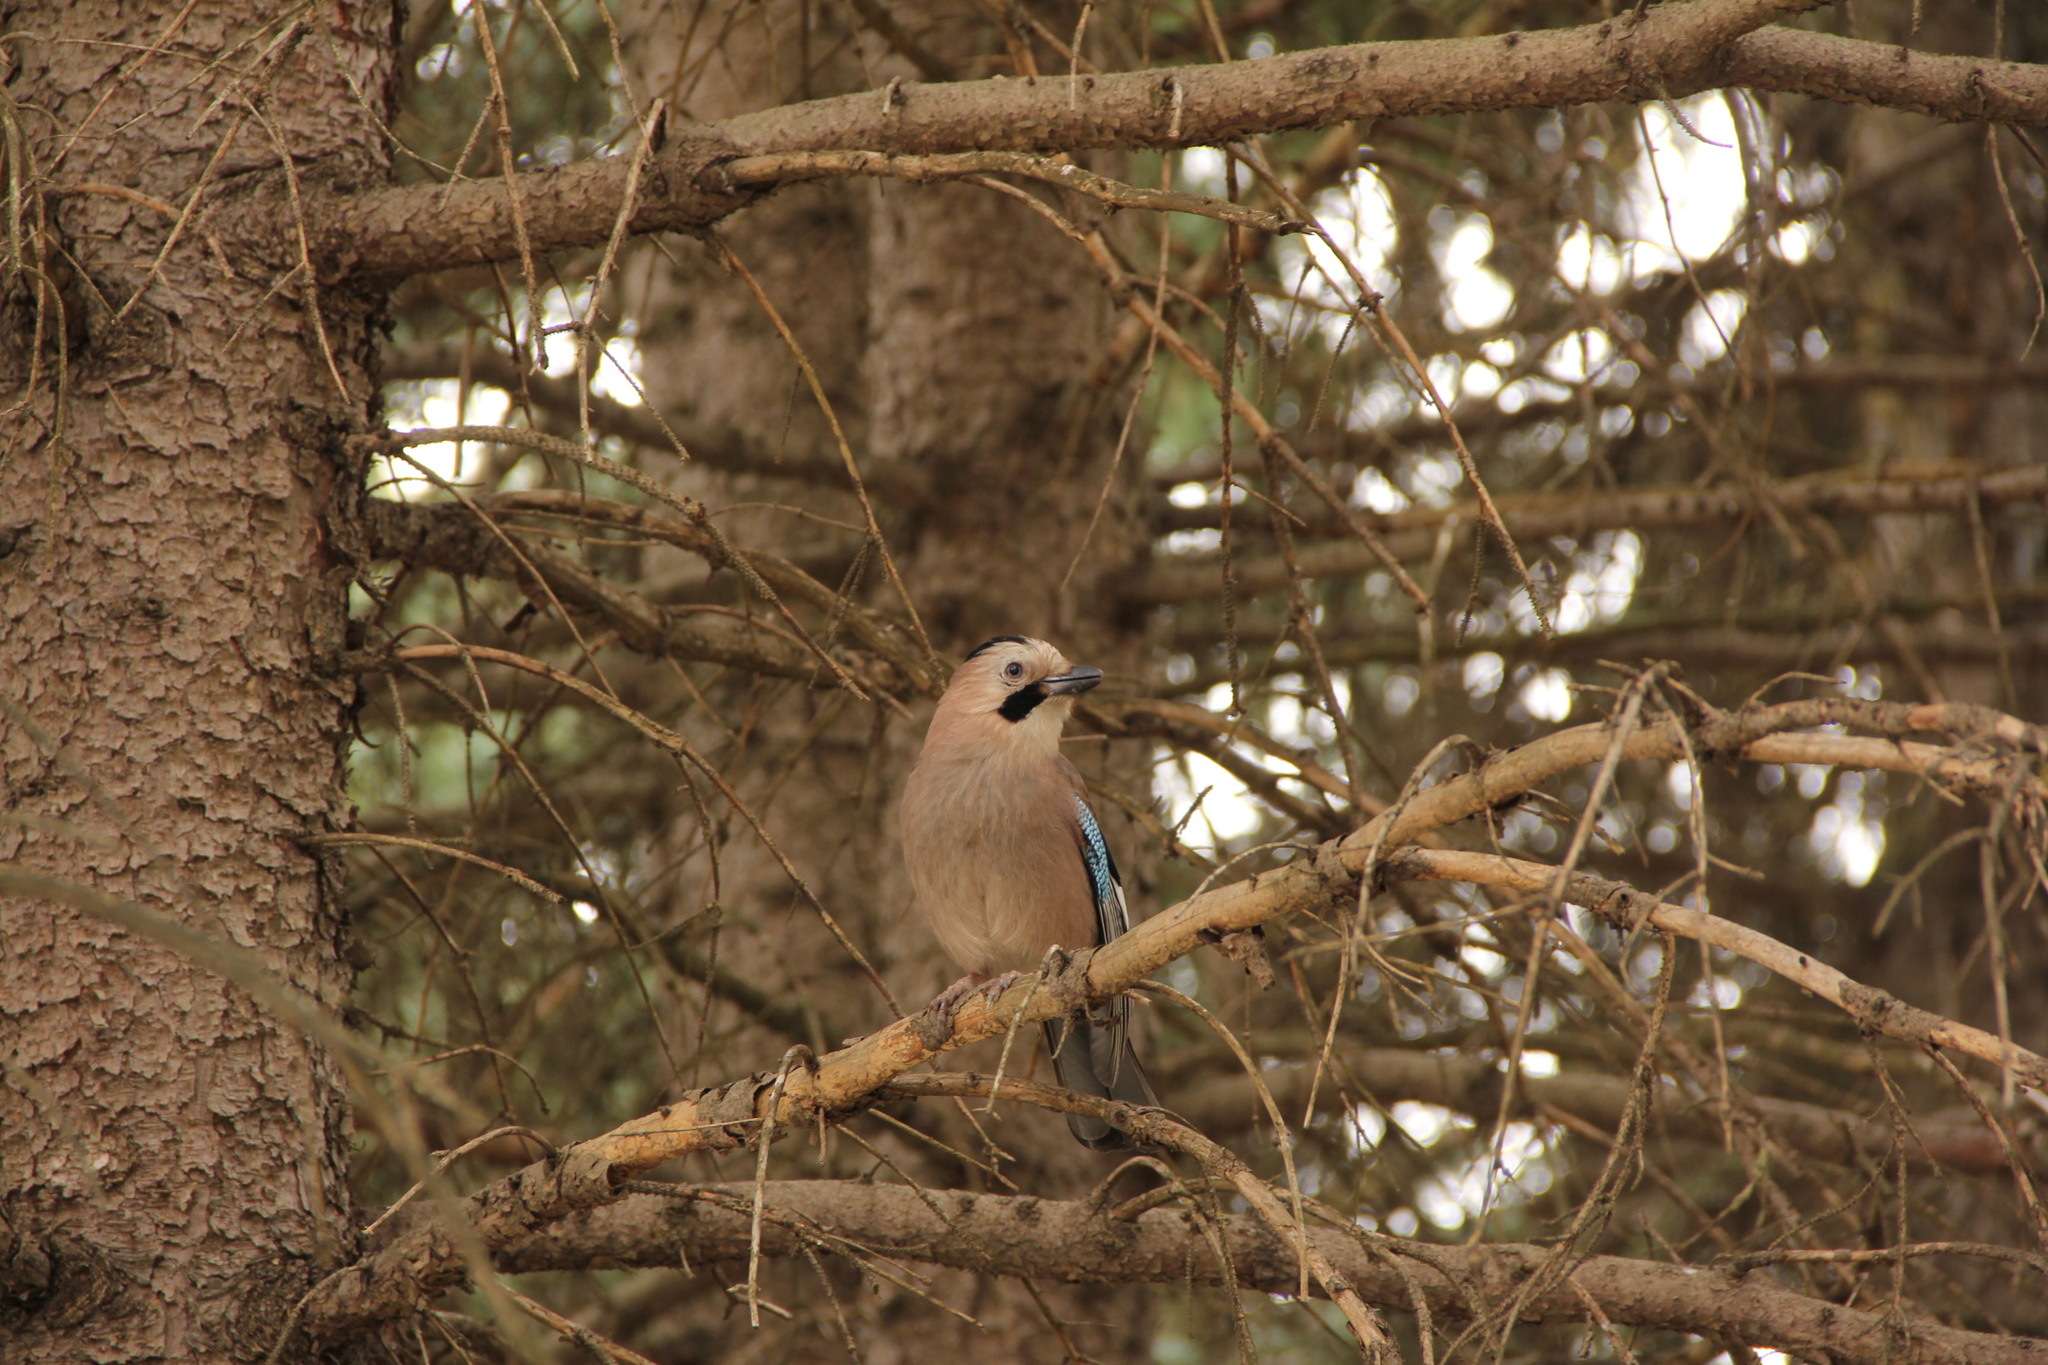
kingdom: Animalia
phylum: Chordata
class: Aves
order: Passeriformes
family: Corvidae
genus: Garrulus
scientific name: Garrulus glandarius
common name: Eurasian jay
